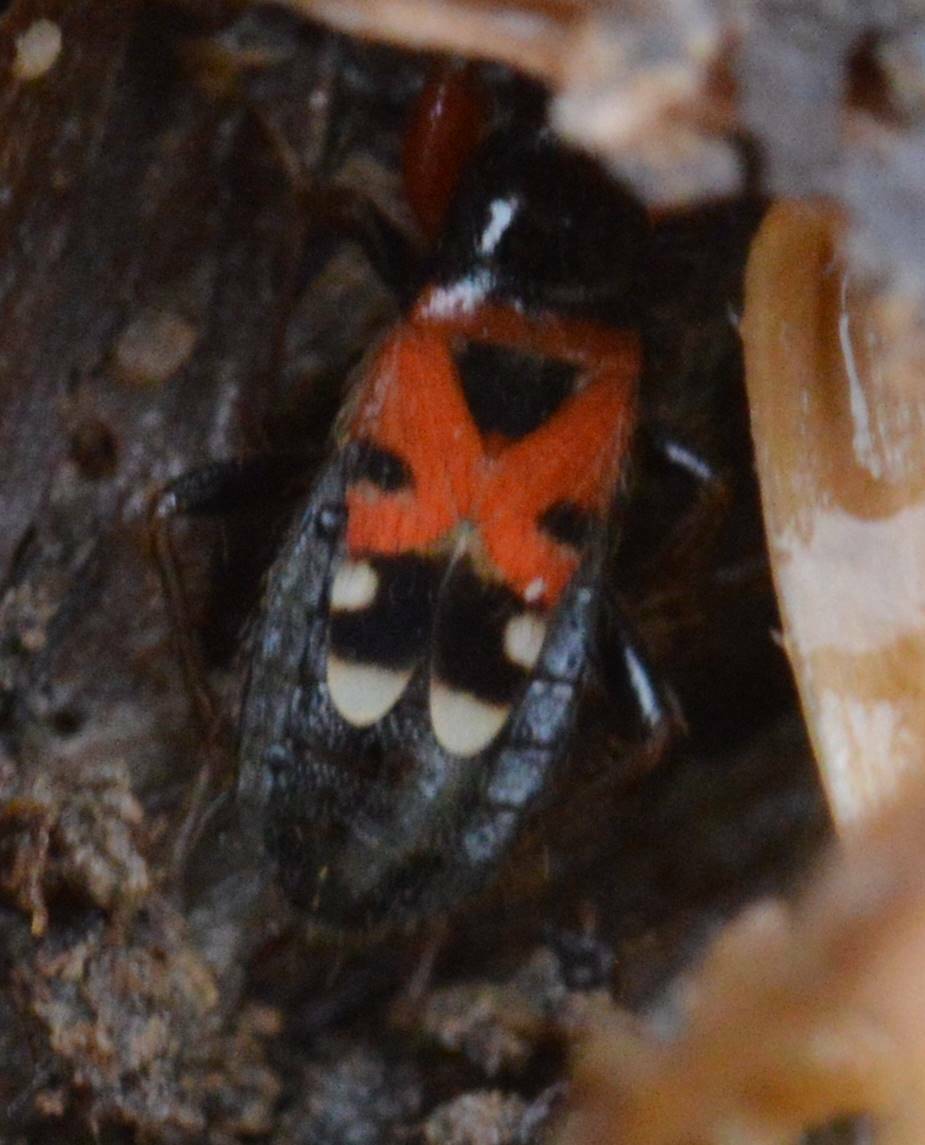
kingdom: Animalia
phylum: Arthropoda
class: Insecta
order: Hemiptera
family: Nabidae
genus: Prostemma
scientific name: Prostemma bicolor
